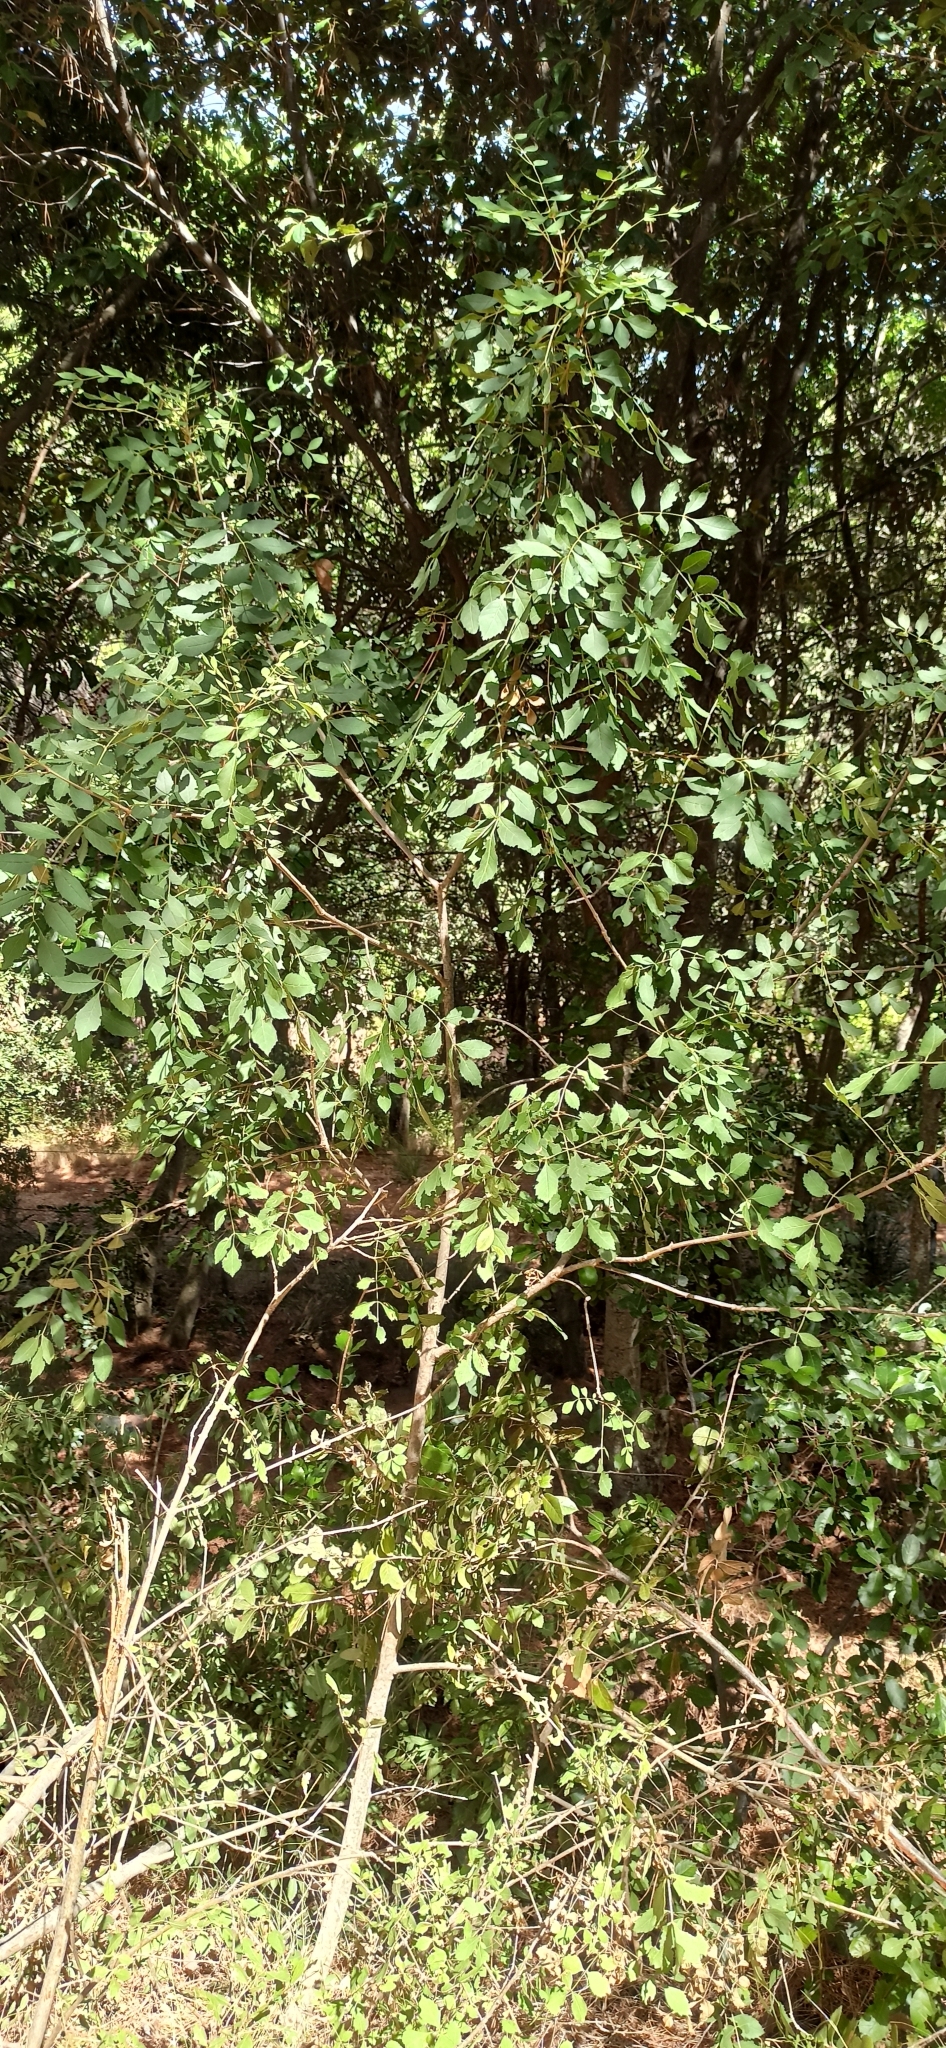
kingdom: Plantae
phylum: Tracheophyta
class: Magnoliopsida
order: Lamiales
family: Oleaceae
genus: Fraxinus
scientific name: Fraxinus ornus
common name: Manna ash
